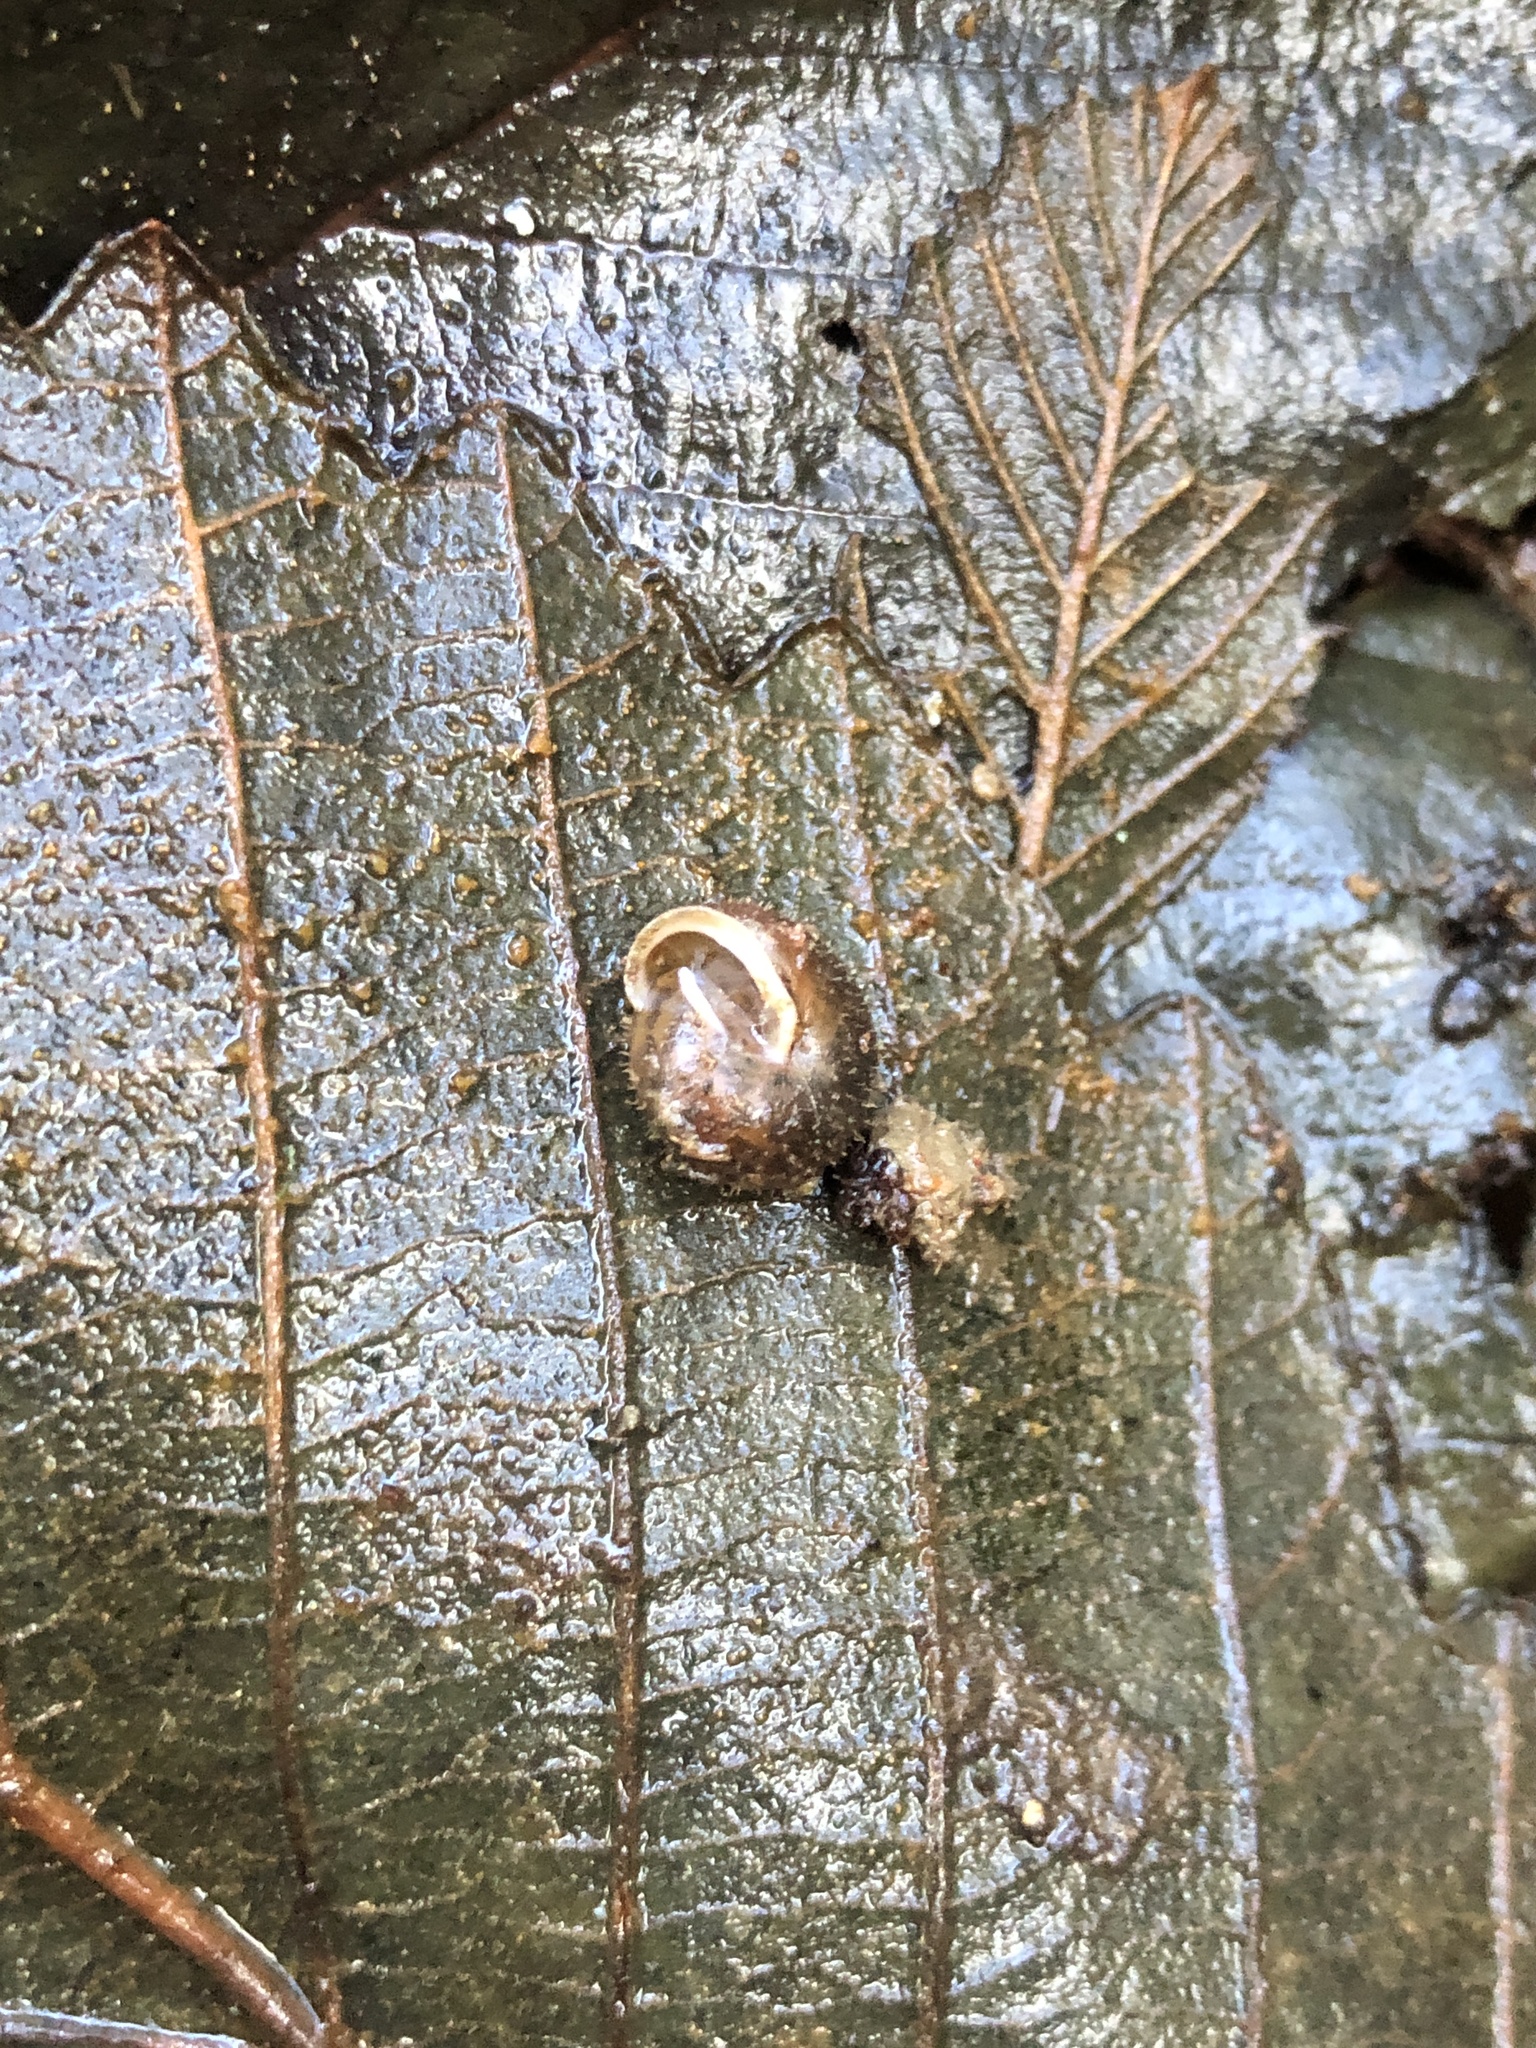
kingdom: Animalia
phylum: Mollusca
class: Gastropoda
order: Stylommatophora
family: Polygyridae
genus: Cryptomastix
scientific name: Cryptomastix germana
